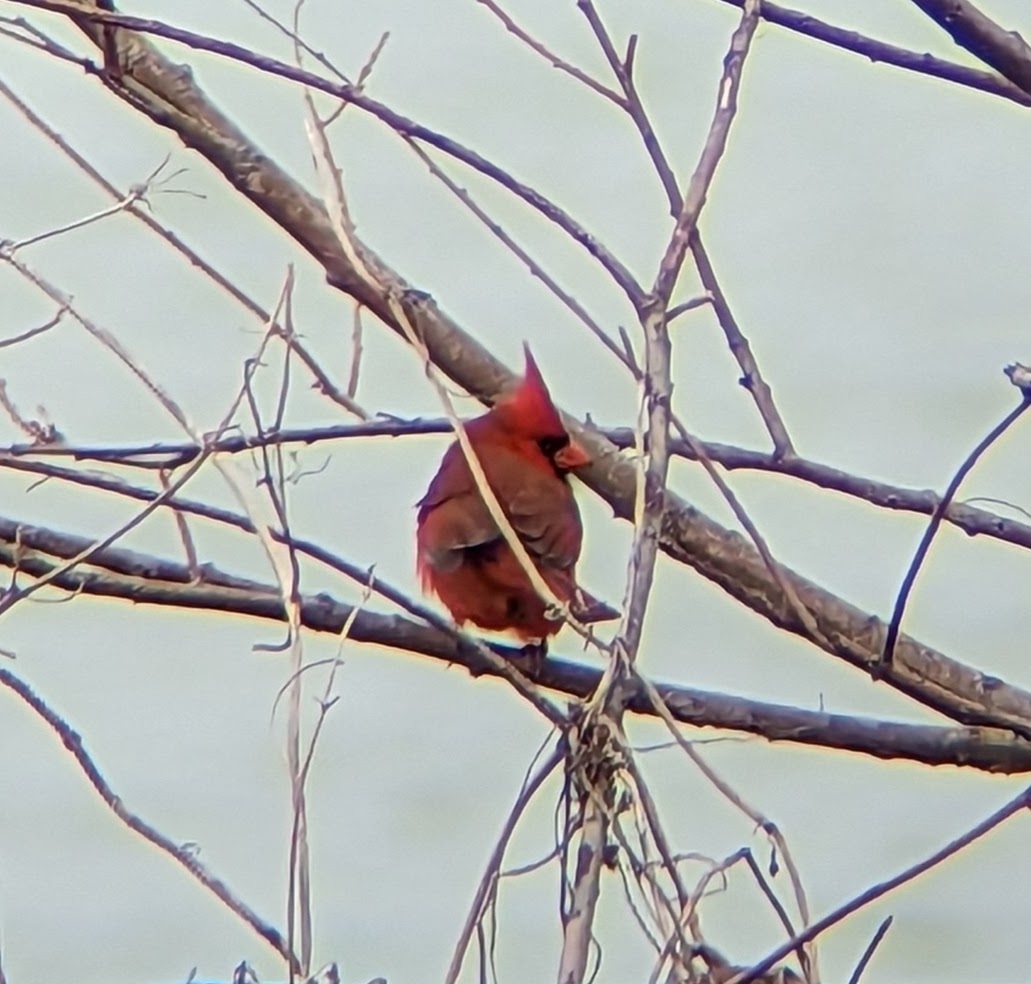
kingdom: Animalia
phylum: Chordata
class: Aves
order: Passeriformes
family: Cardinalidae
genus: Cardinalis
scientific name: Cardinalis cardinalis
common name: Northern cardinal
